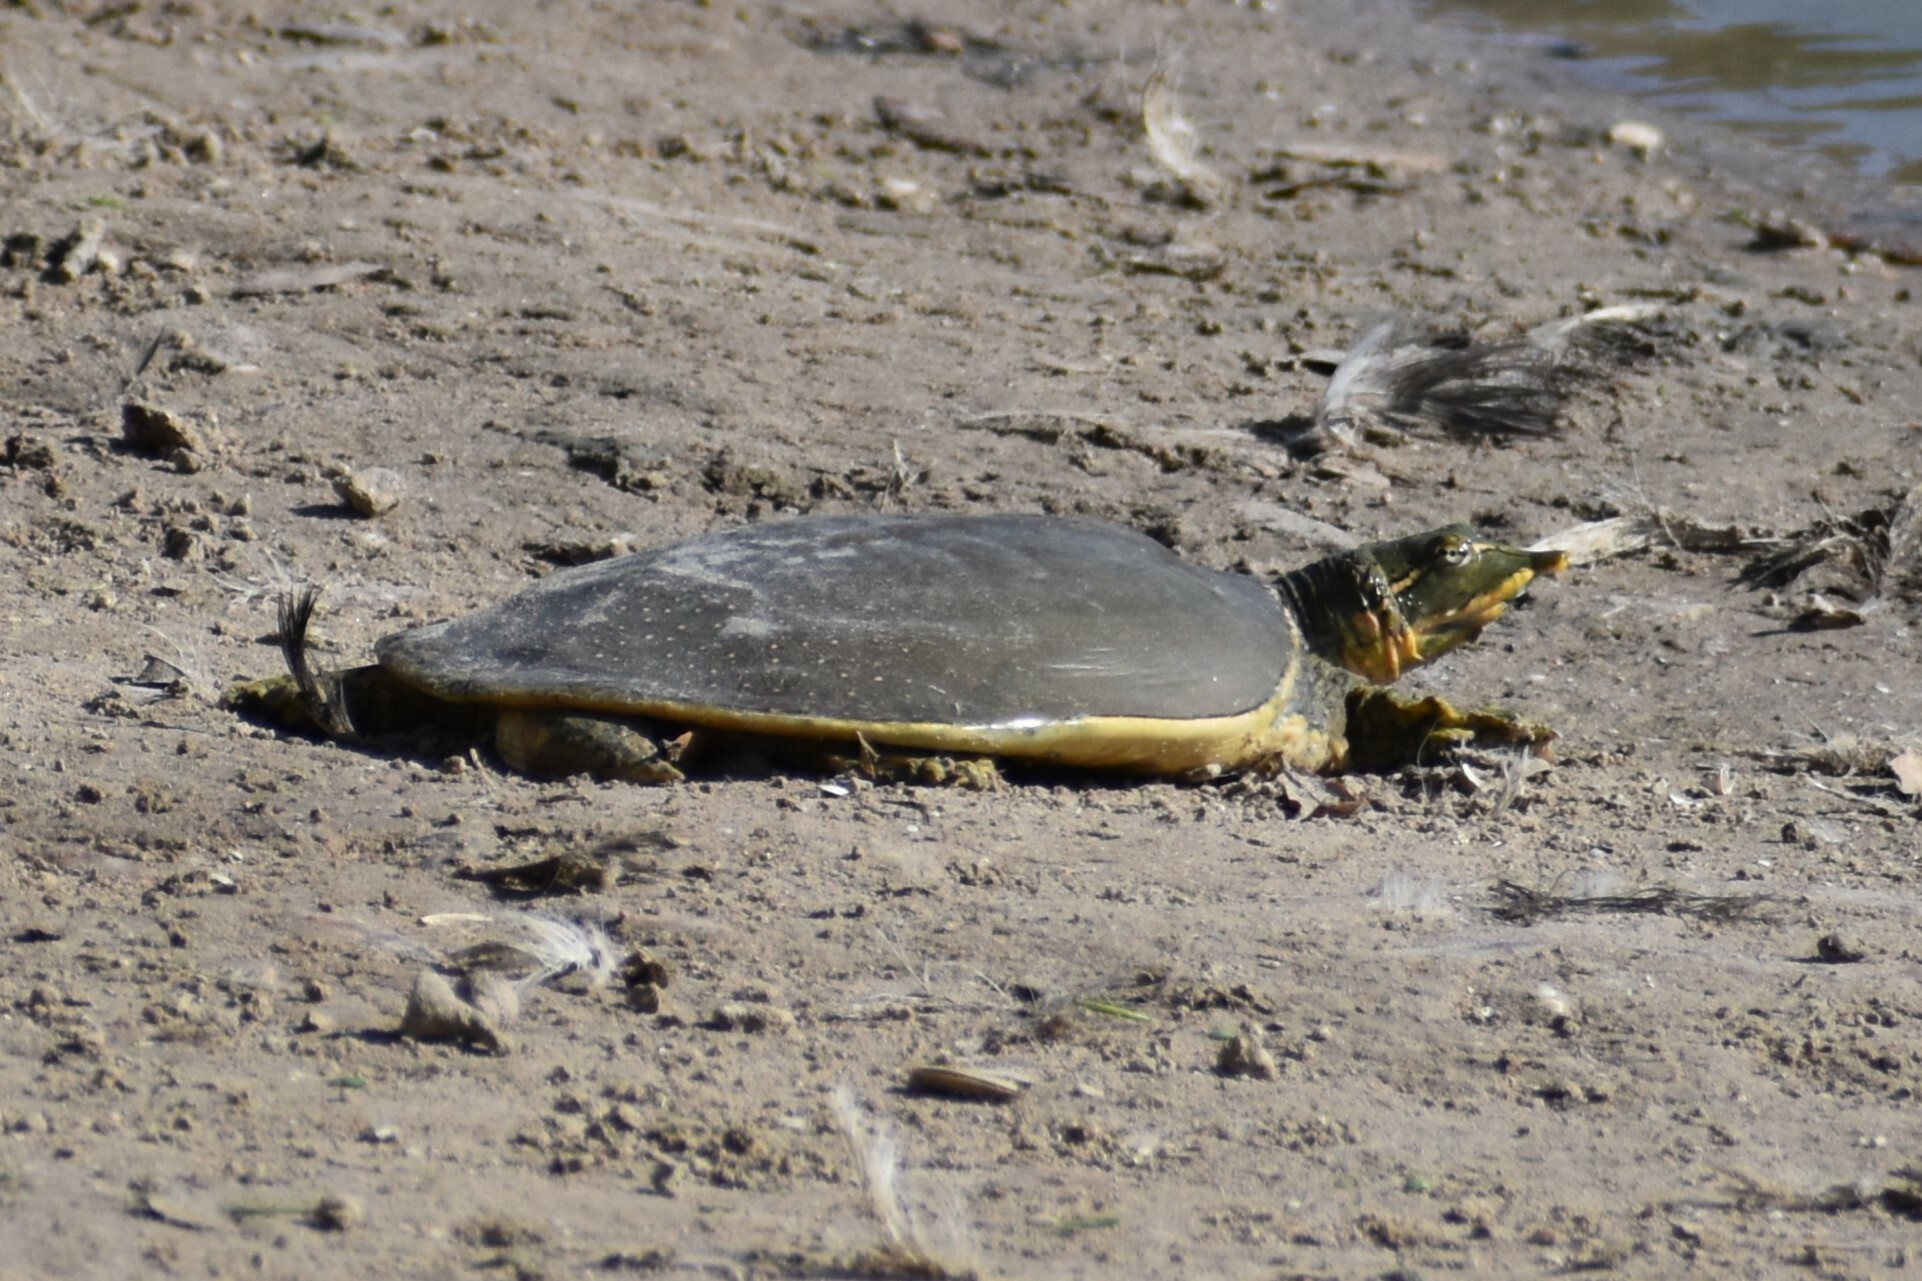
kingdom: Animalia
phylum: Chordata
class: Testudines
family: Trionychidae
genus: Apalone
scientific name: Apalone spinifera
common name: Spiny softshell turtle
